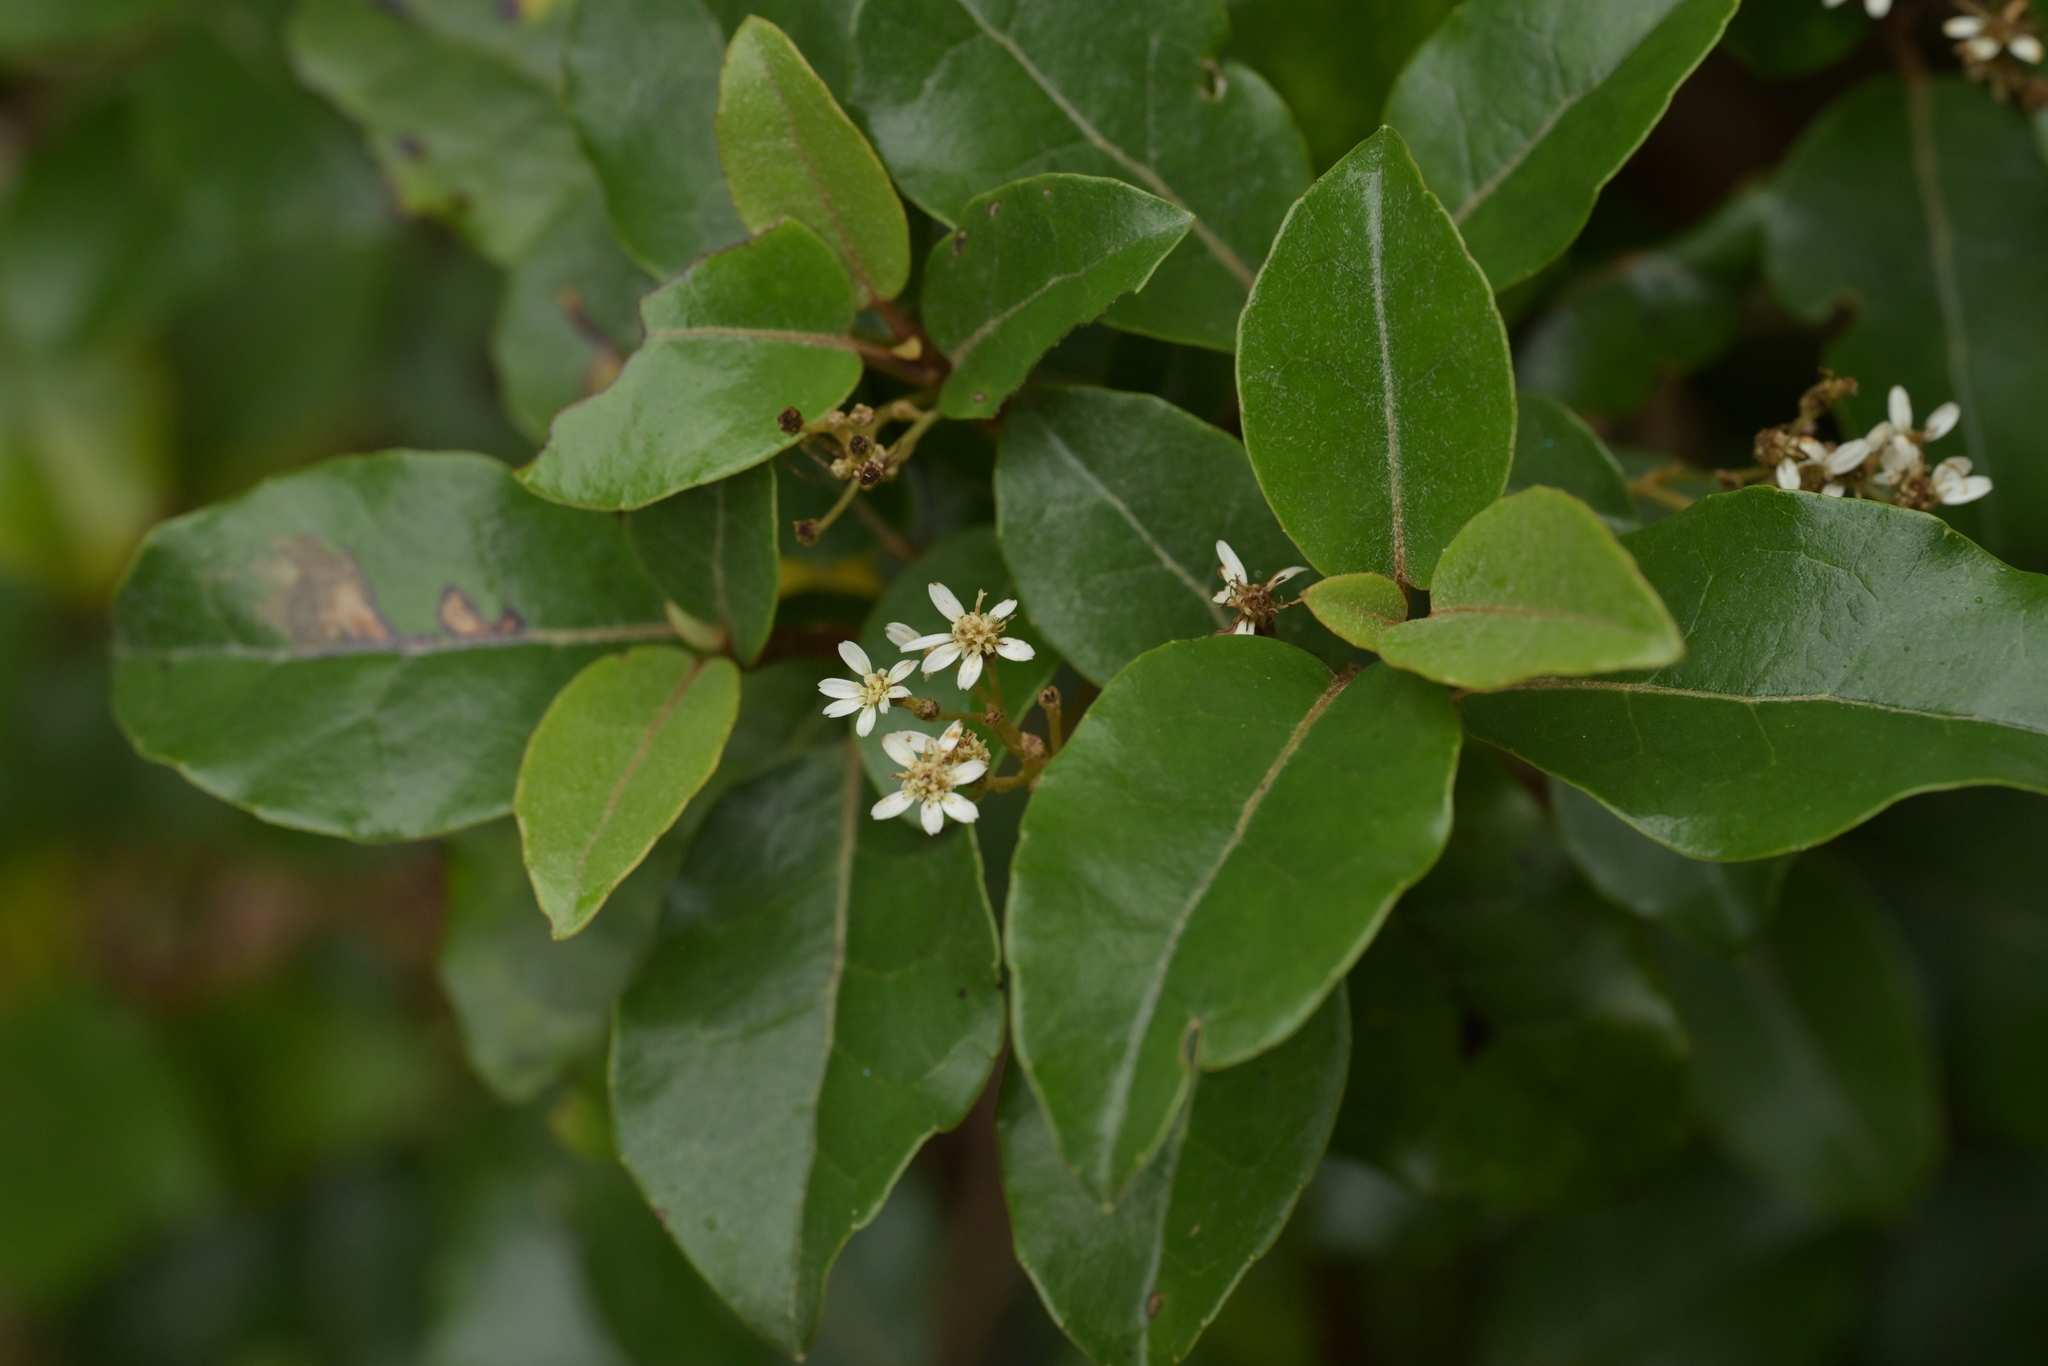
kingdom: Plantae
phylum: Tracheophyta
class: Magnoliopsida
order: Asterales
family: Asteraceae
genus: Olearia
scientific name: Olearia arborescens
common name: Glossy tree daisy
